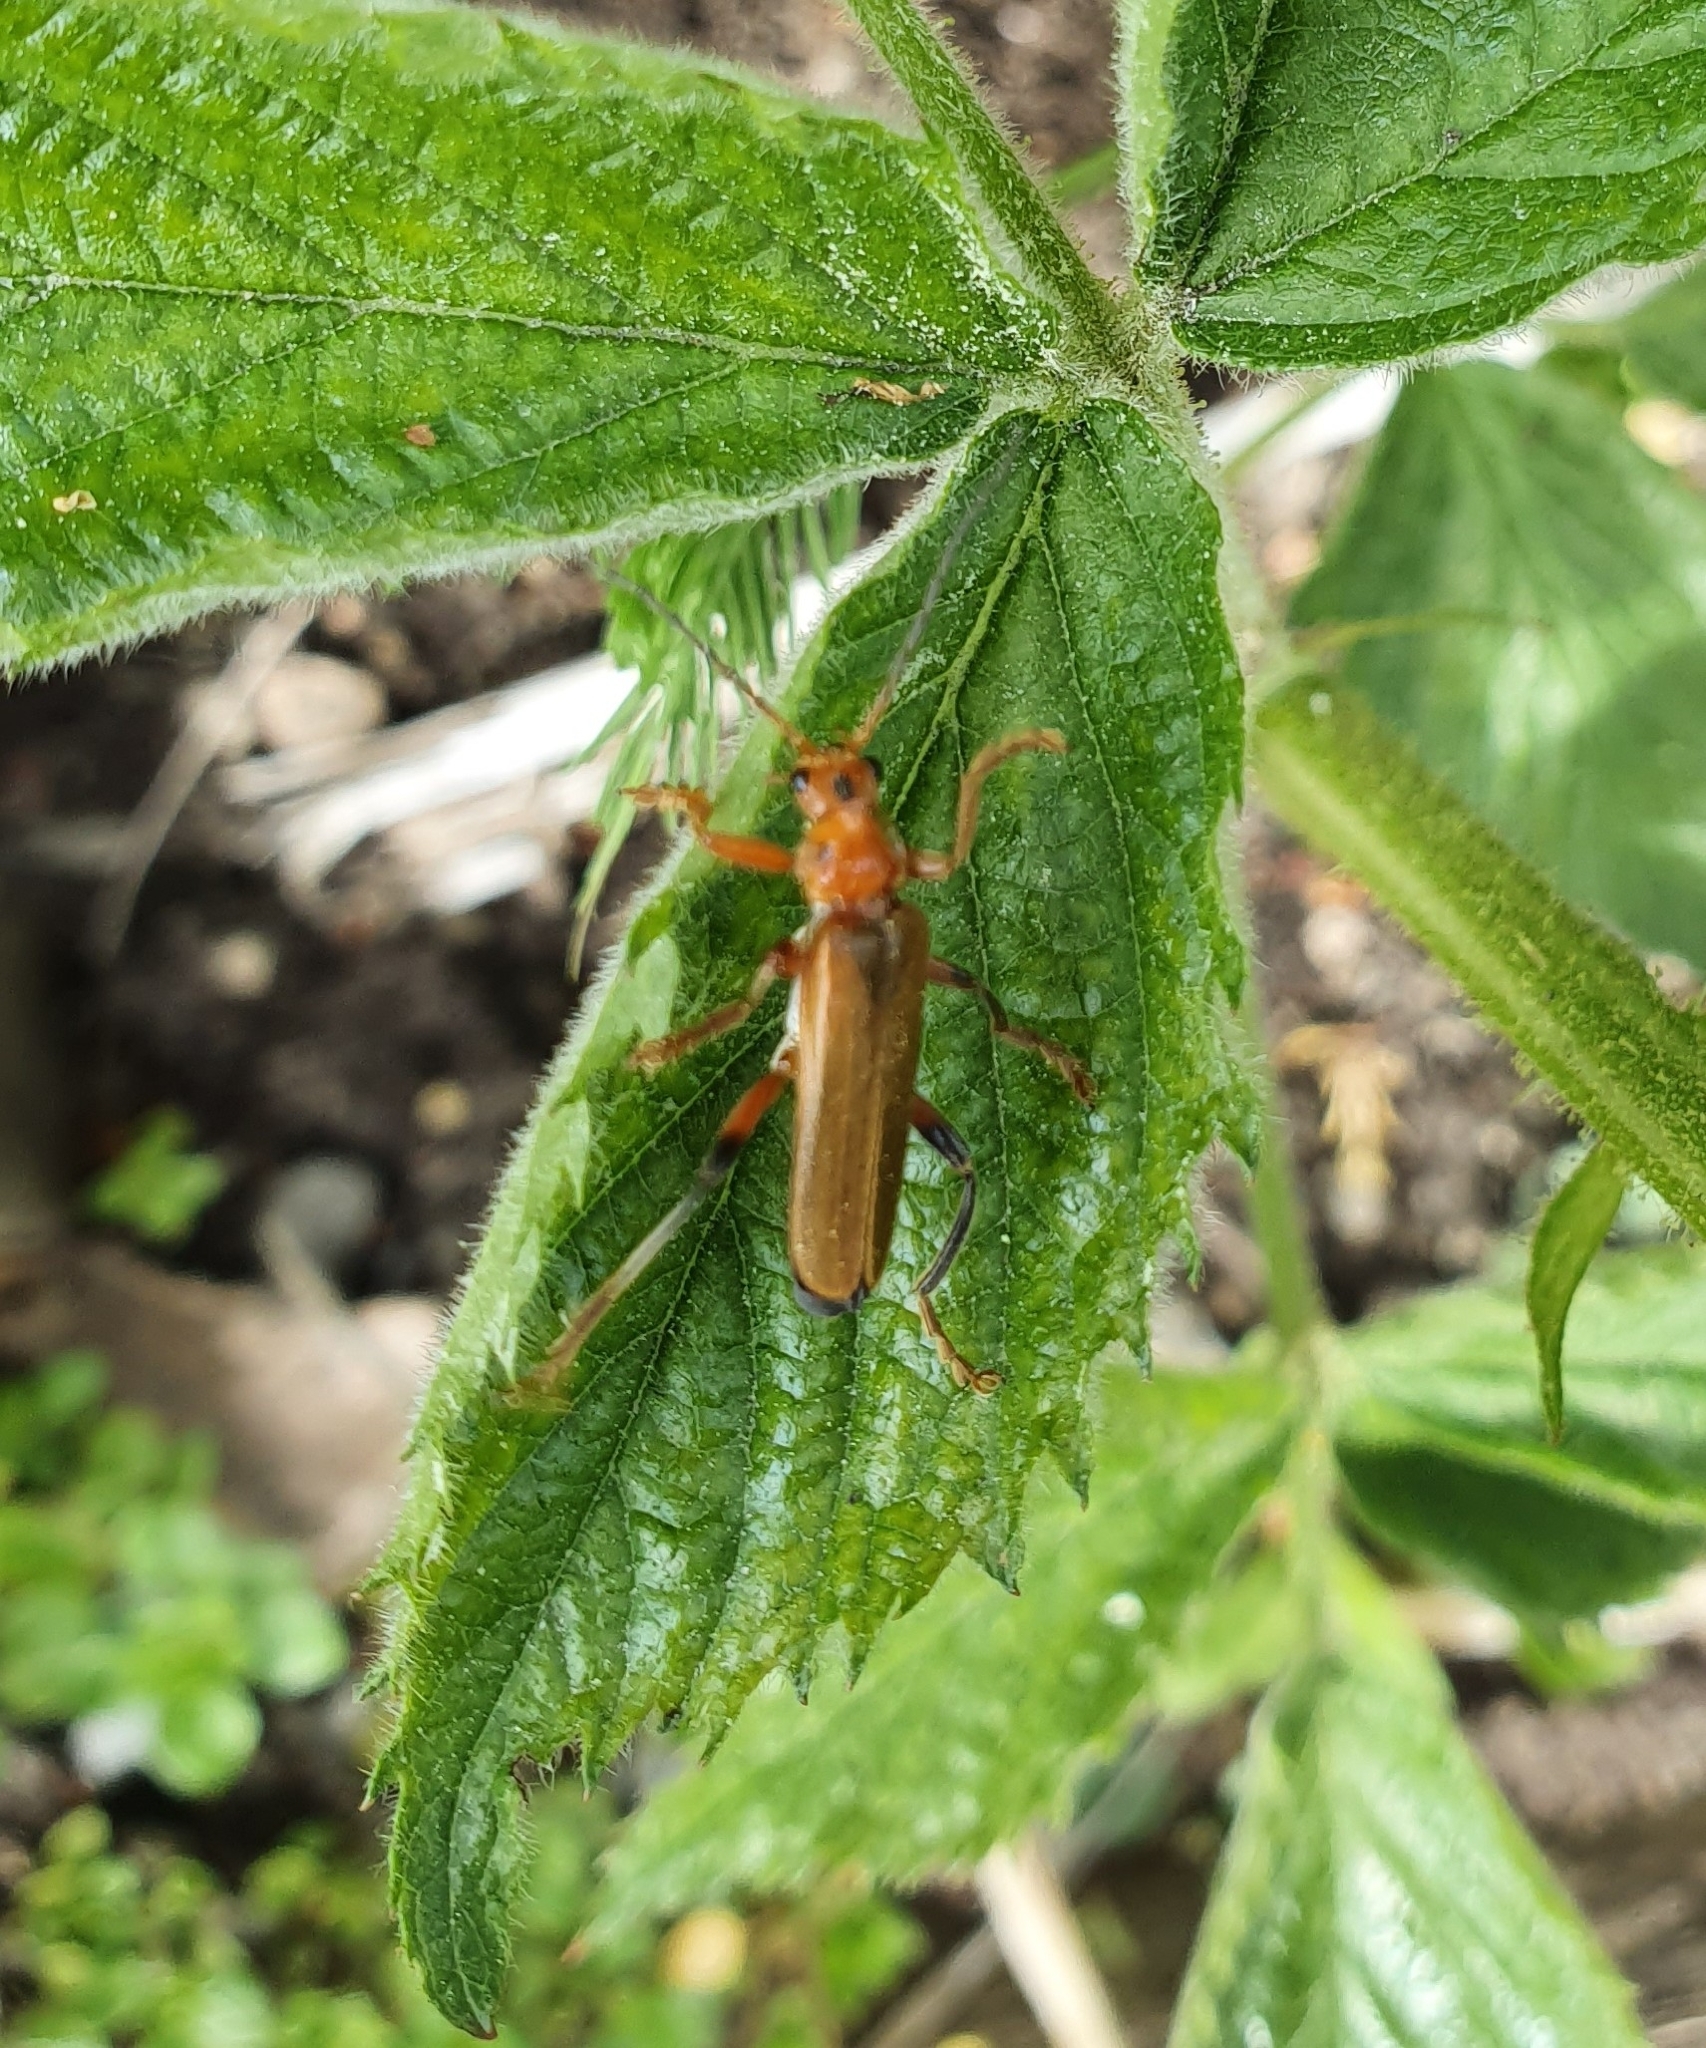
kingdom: Animalia
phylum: Arthropoda
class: Insecta
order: Coleoptera
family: Cantharidae
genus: Cantharis
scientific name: Cantharis livida
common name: Livid soldier beetle
